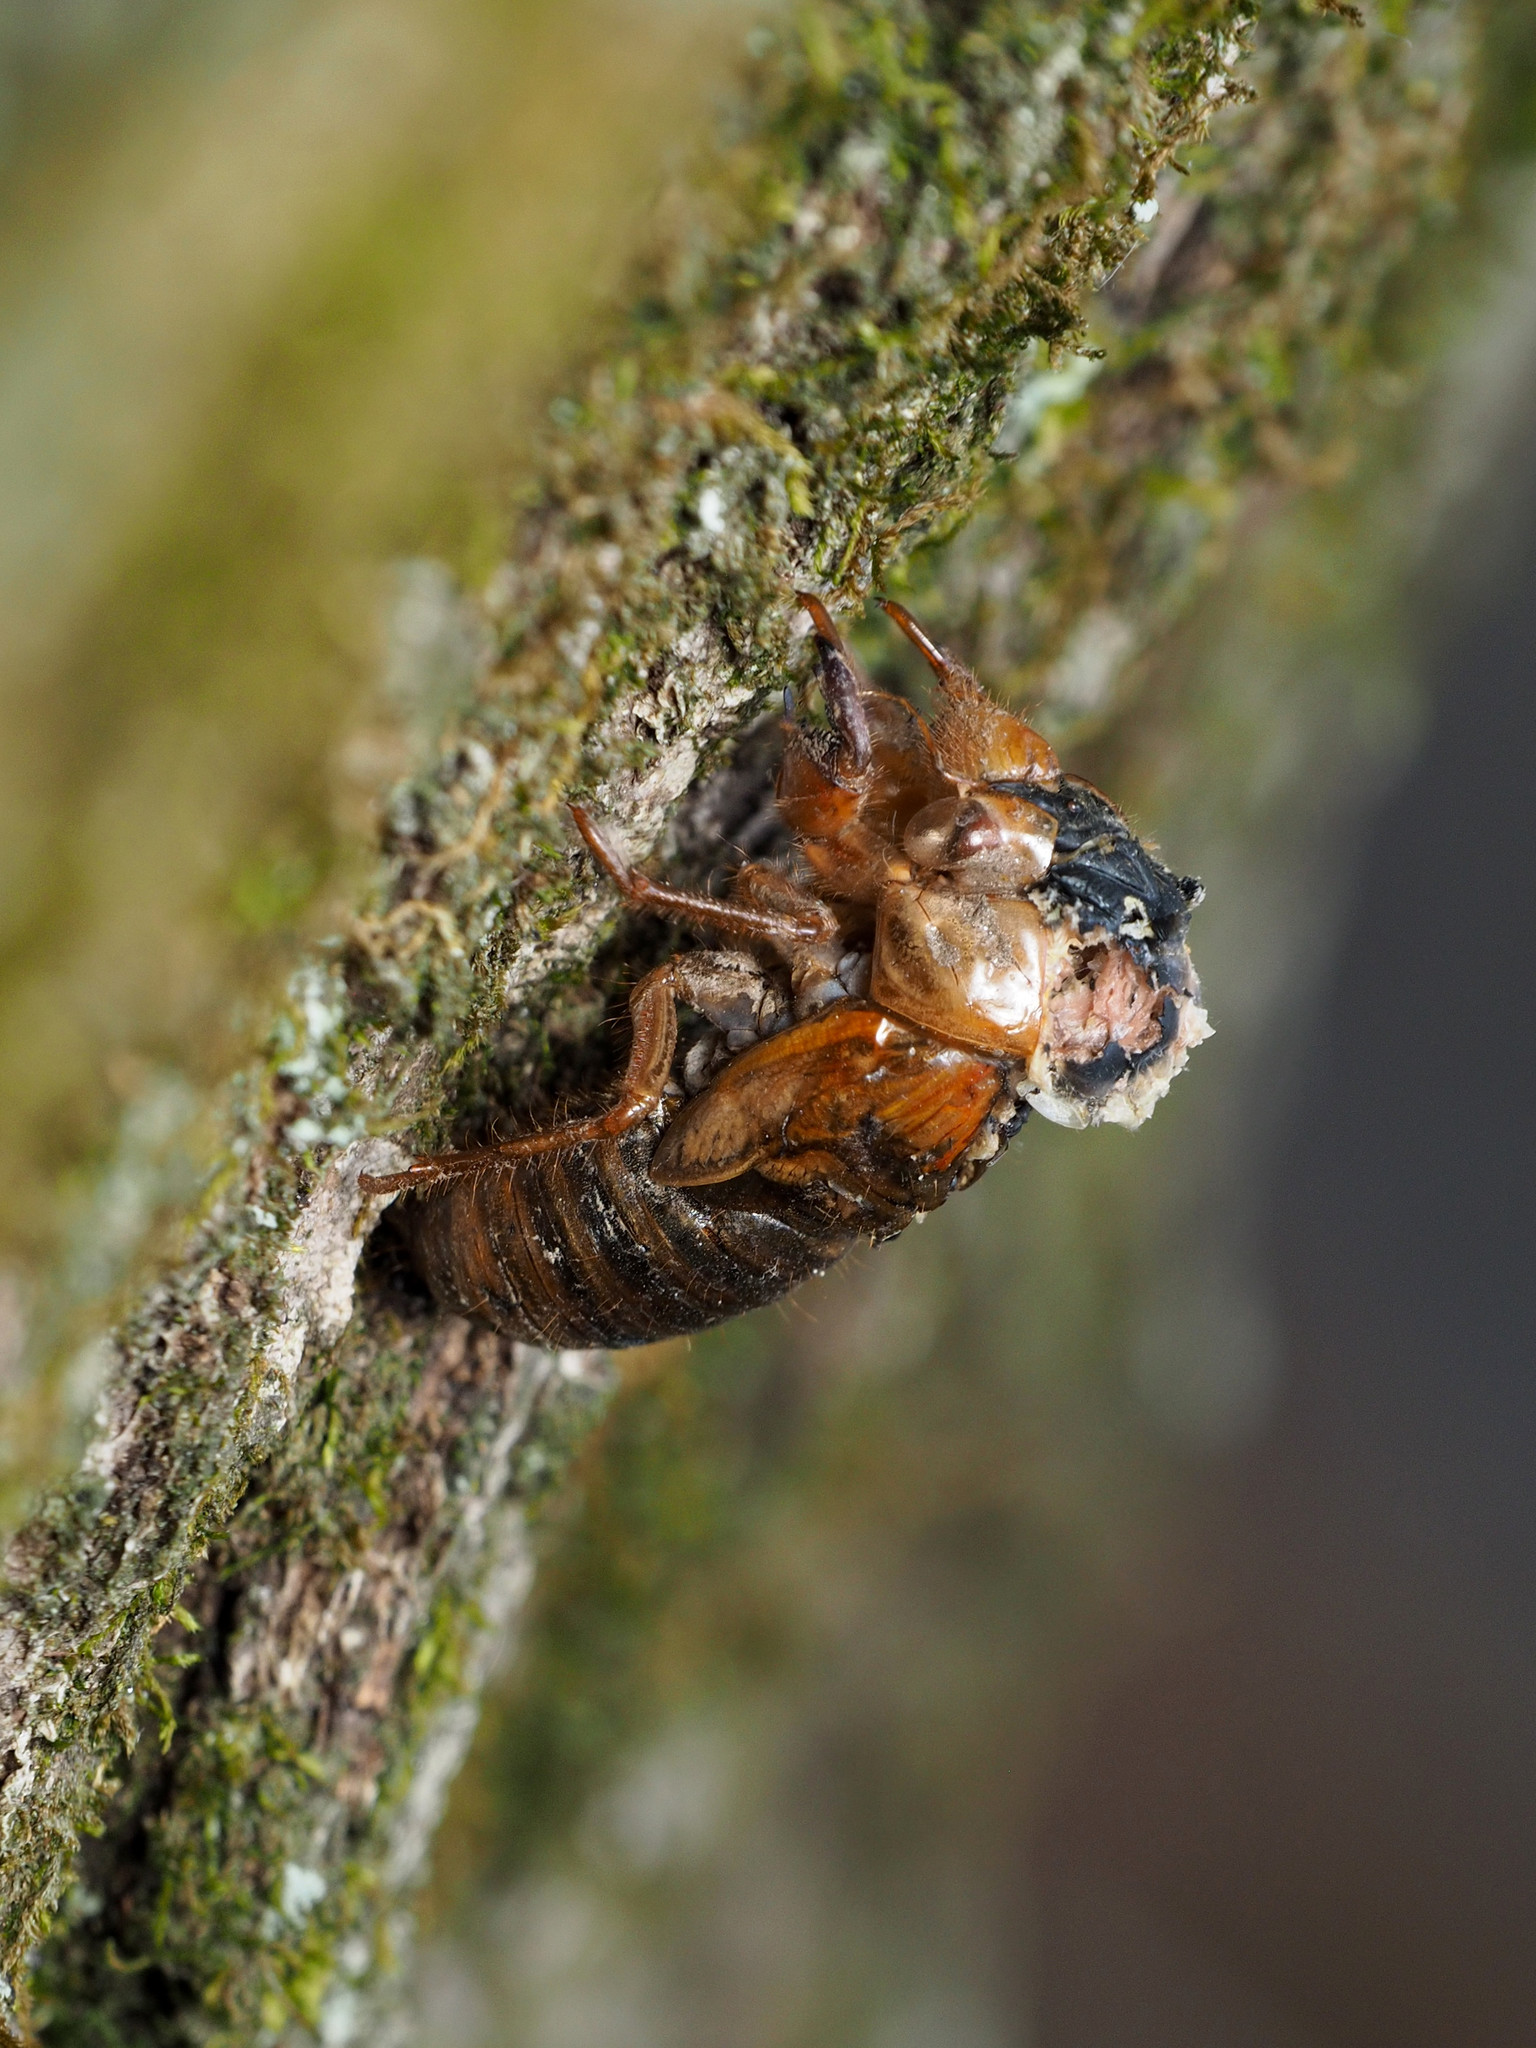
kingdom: Animalia
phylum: Arthropoda
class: Insecta
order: Hemiptera
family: Cicadidae
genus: Magicicada
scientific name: Magicicada
